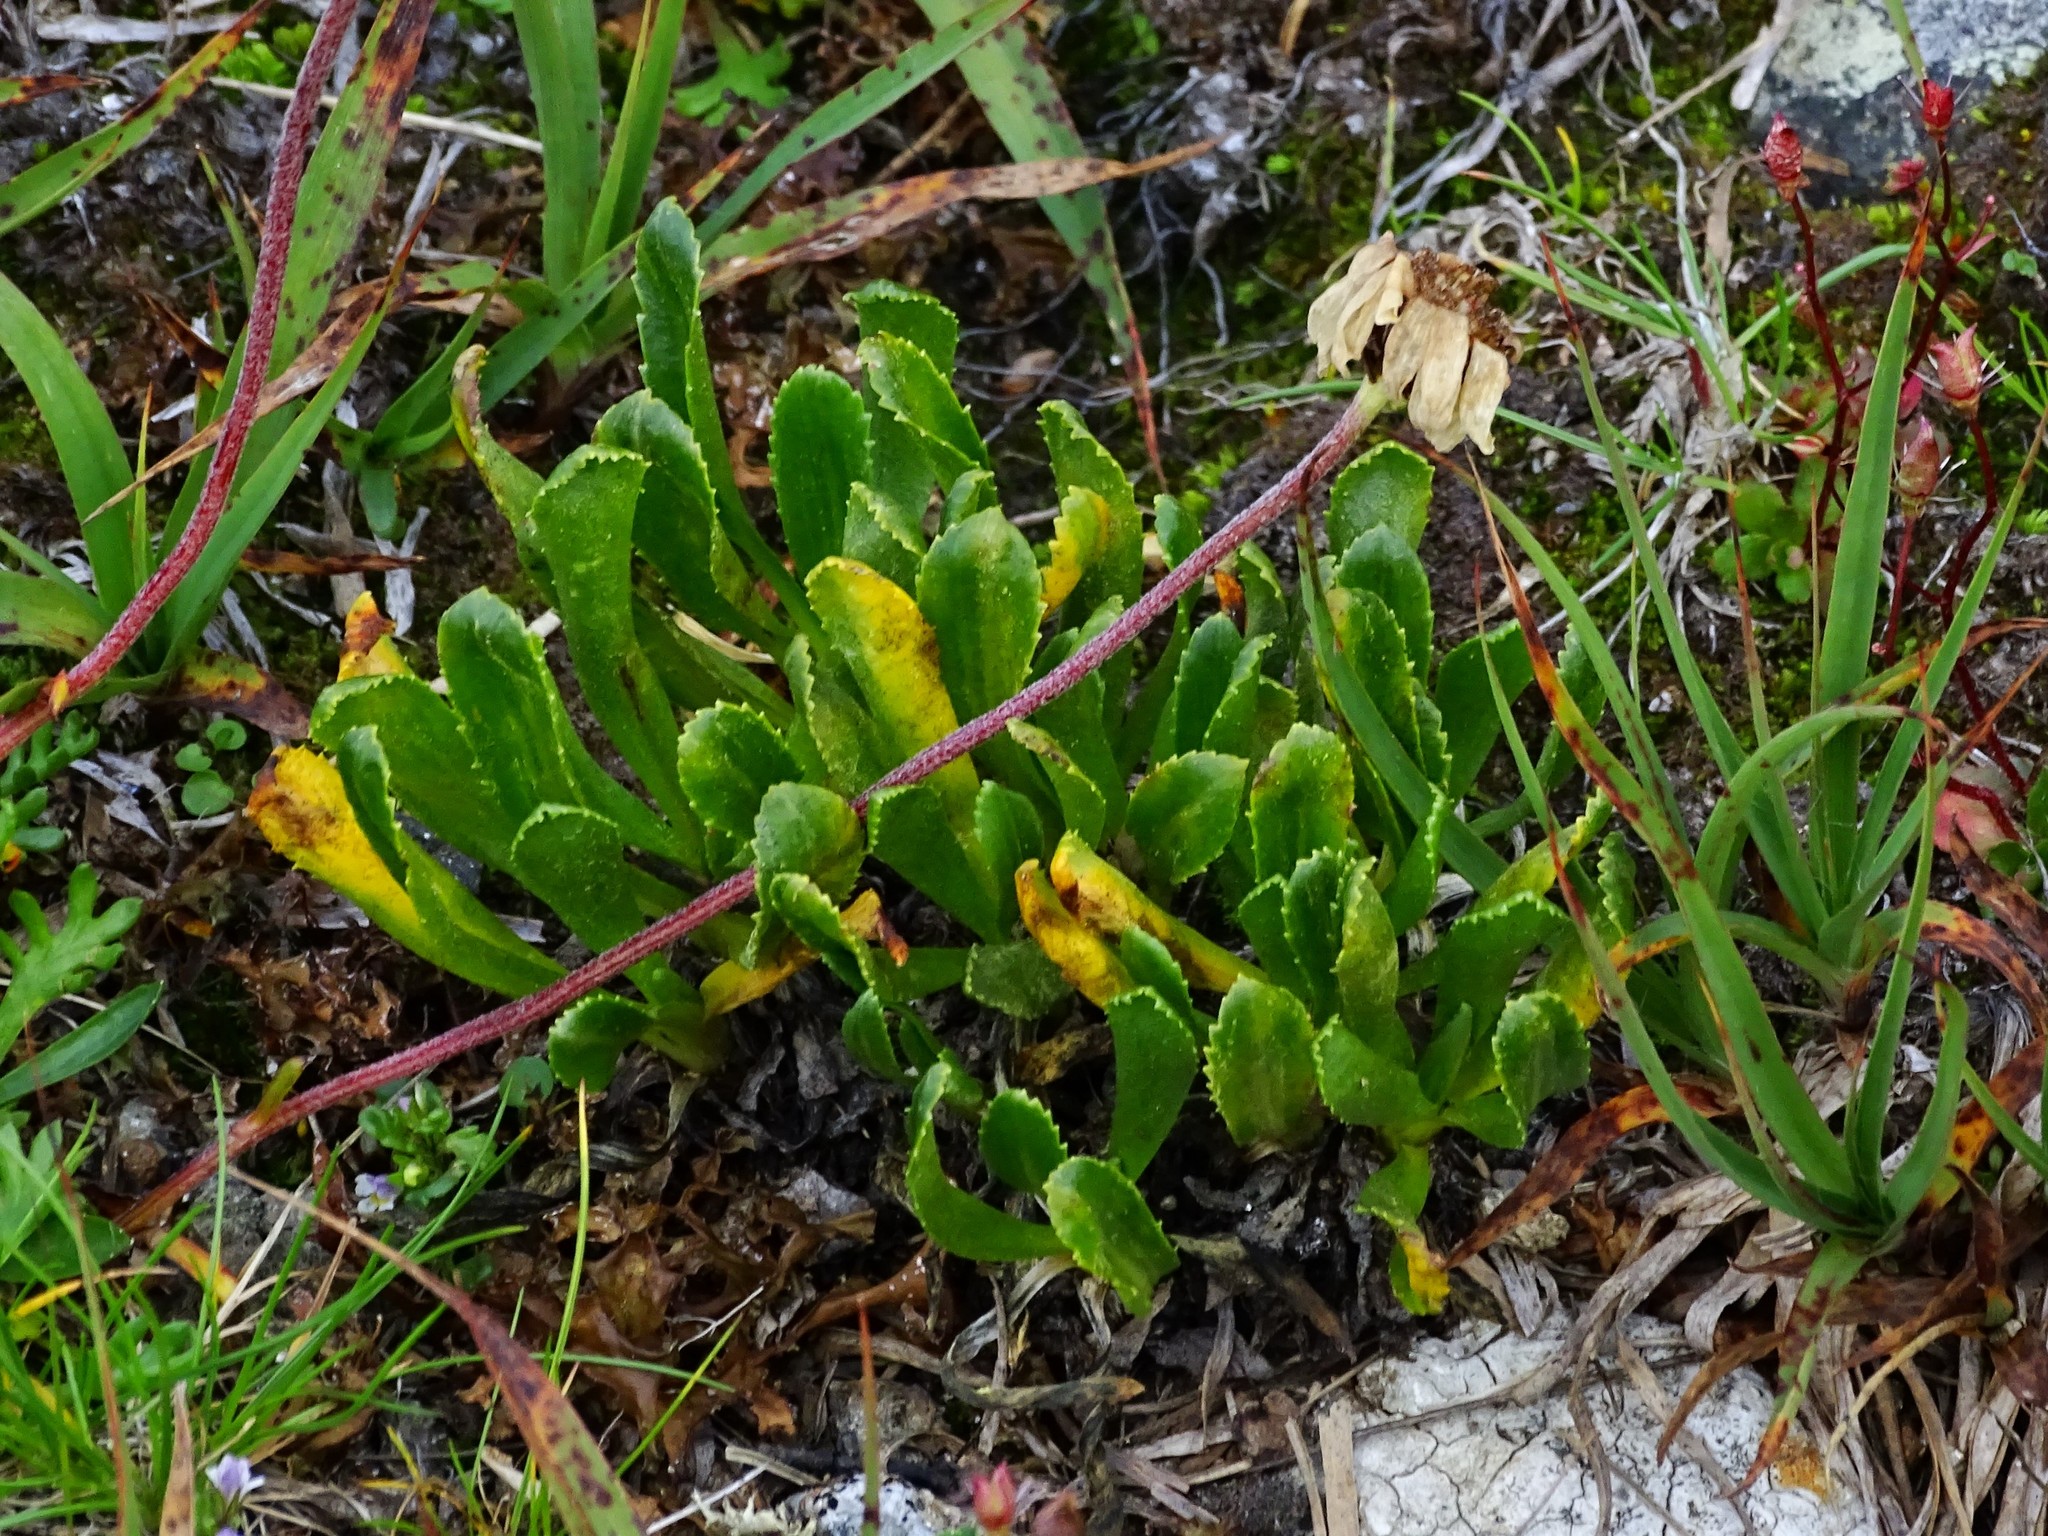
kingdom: Plantae
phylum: Tracheophyta
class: Magnoliopsida
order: Ericales
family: Primulaceae
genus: Primula
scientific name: Primula glutinosa
